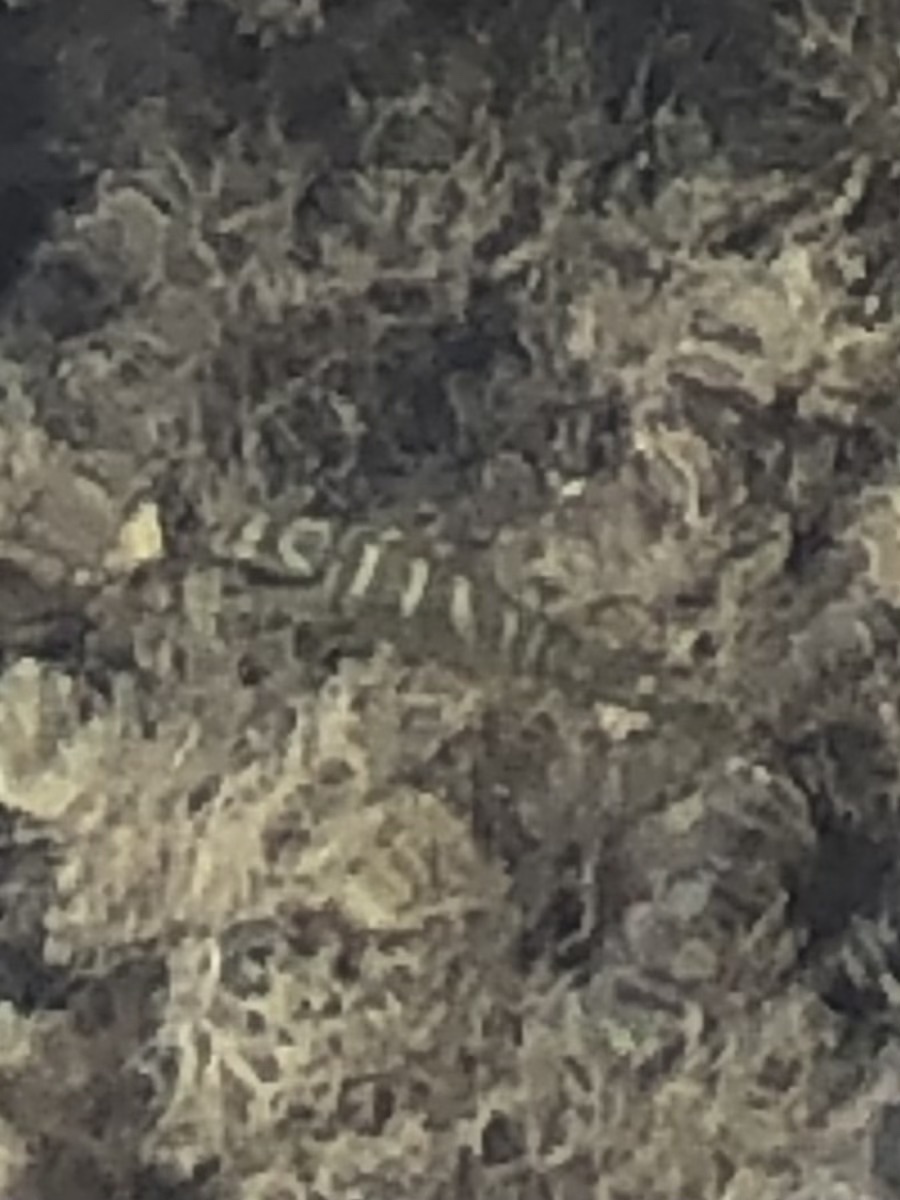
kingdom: Animalia
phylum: Chordata
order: Perciformes
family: Lutjanidae
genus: Lutjanus
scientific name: Lutjanus apodus
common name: Schoolmaster
